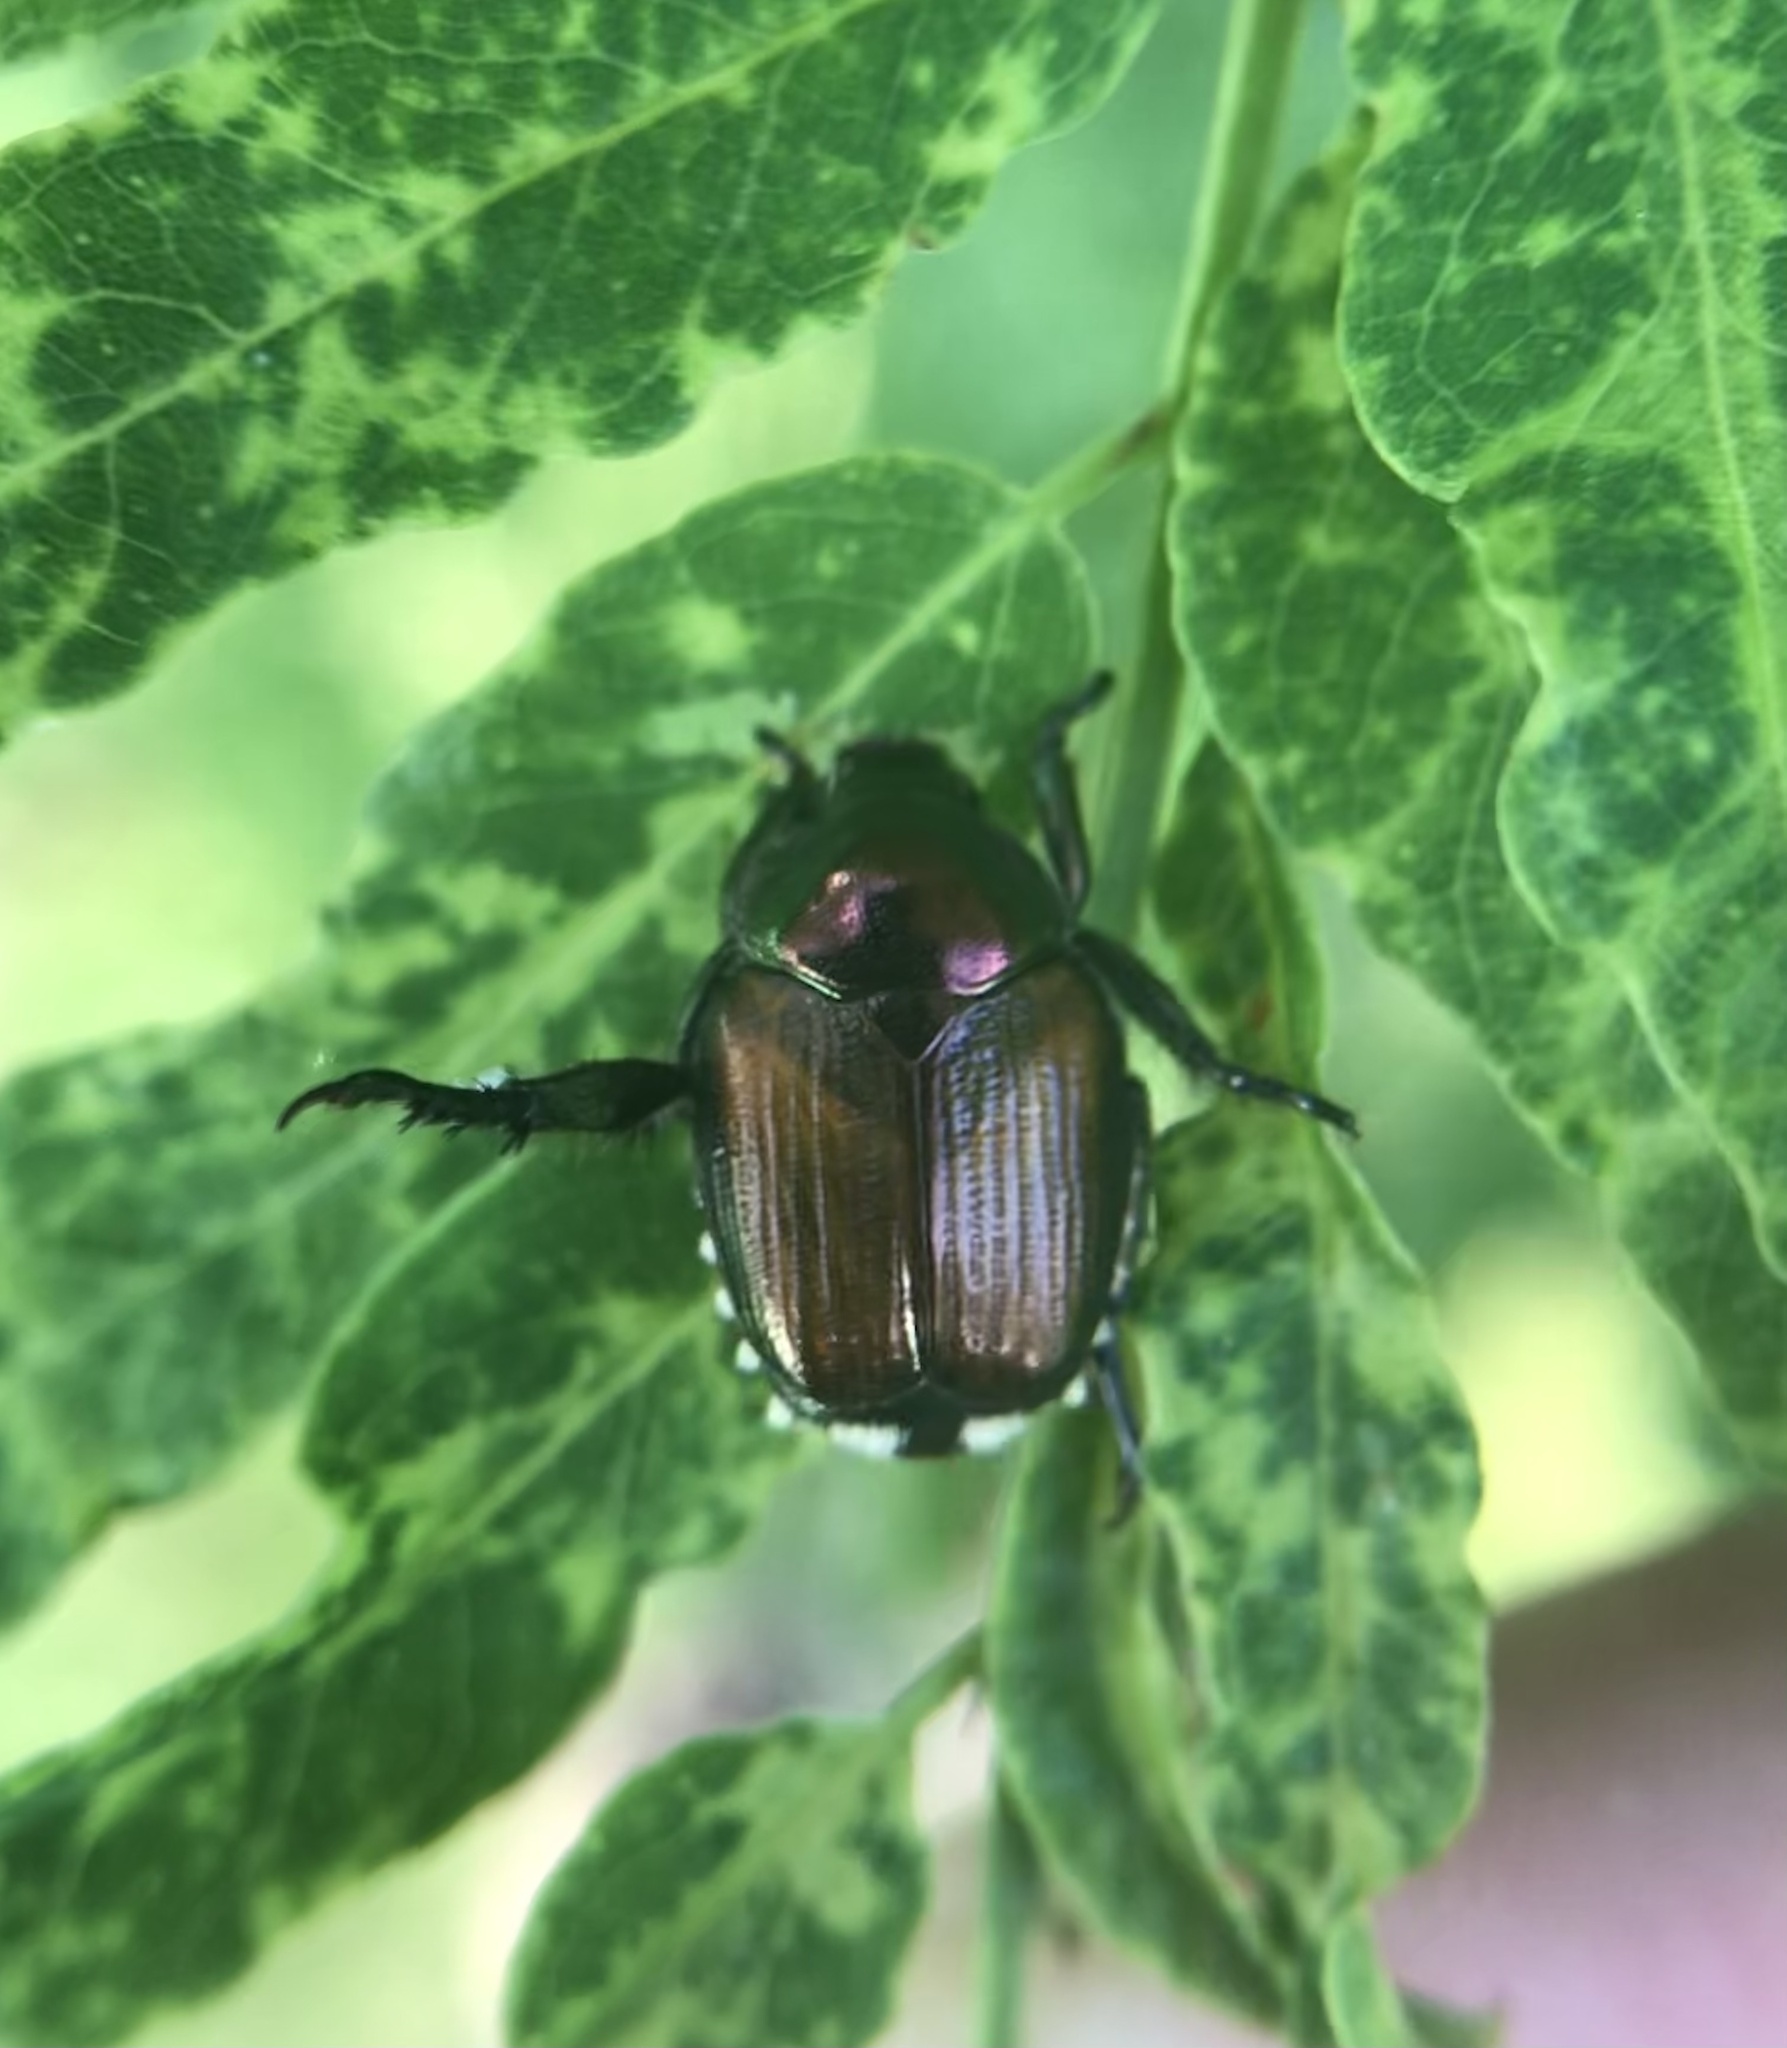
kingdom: Animalia
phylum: Arthropoda
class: Insecta
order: Coleoptera
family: Scarabaeidae
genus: Popillia
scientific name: Popillia japonica
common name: Japanese beetle
